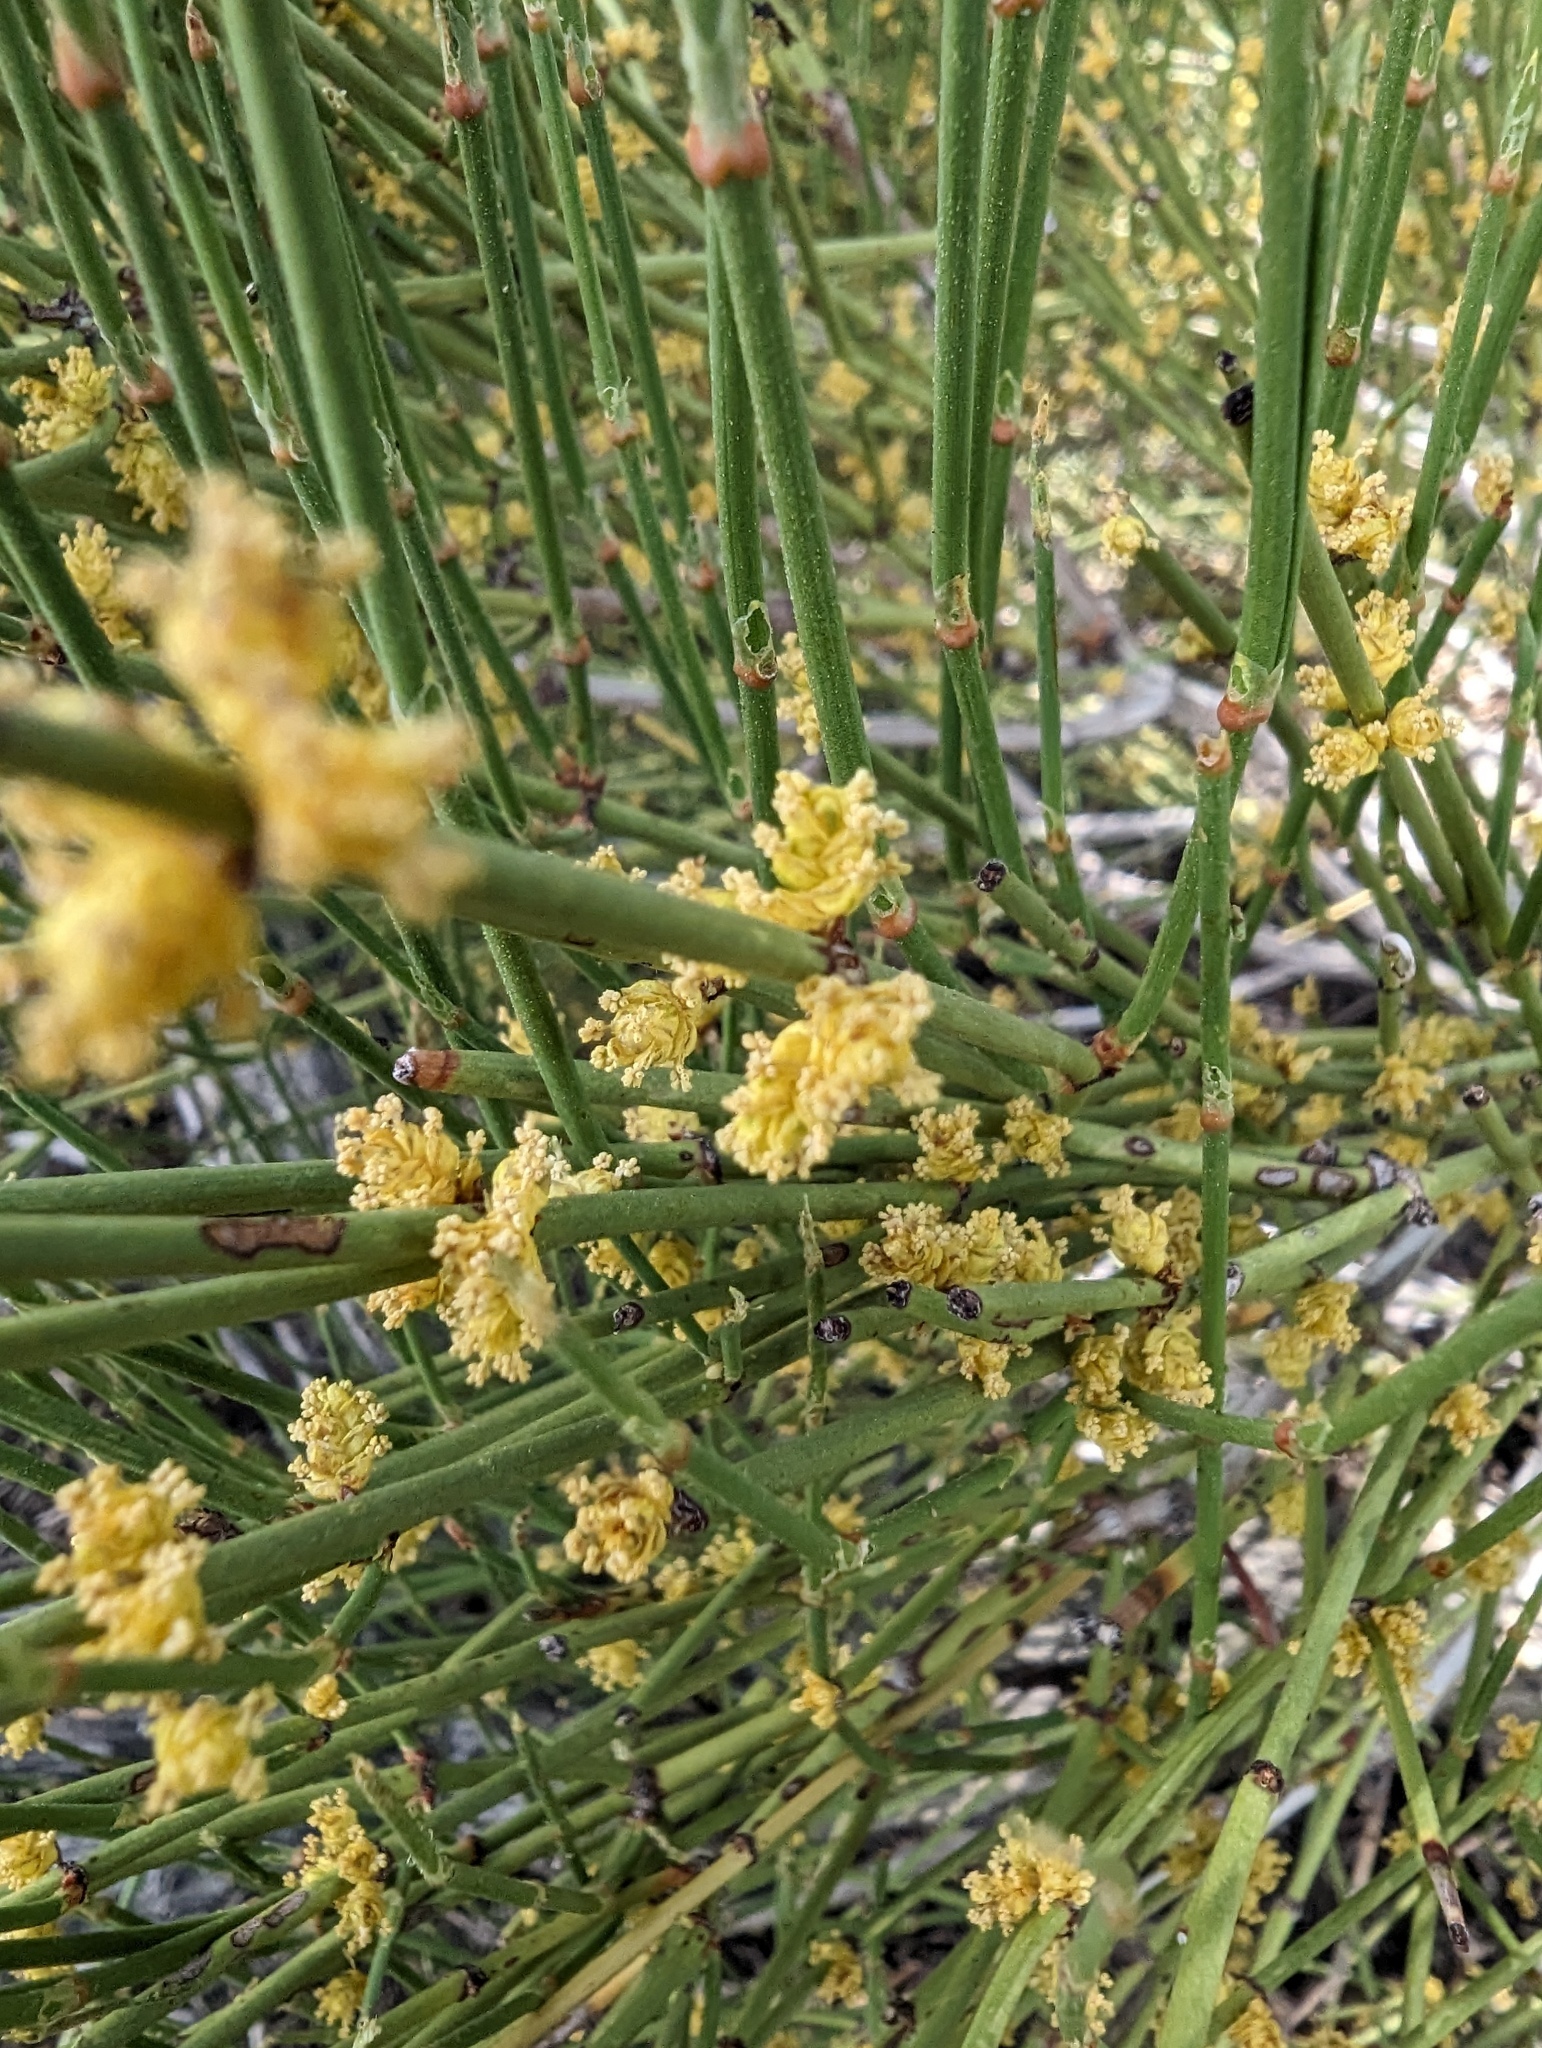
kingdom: Plantae
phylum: Tracheophyta
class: Gnetopsida
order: Ephedrales
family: Ephedraceae
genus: Ephedra
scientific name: Ephedra viridis
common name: Green ephedra
